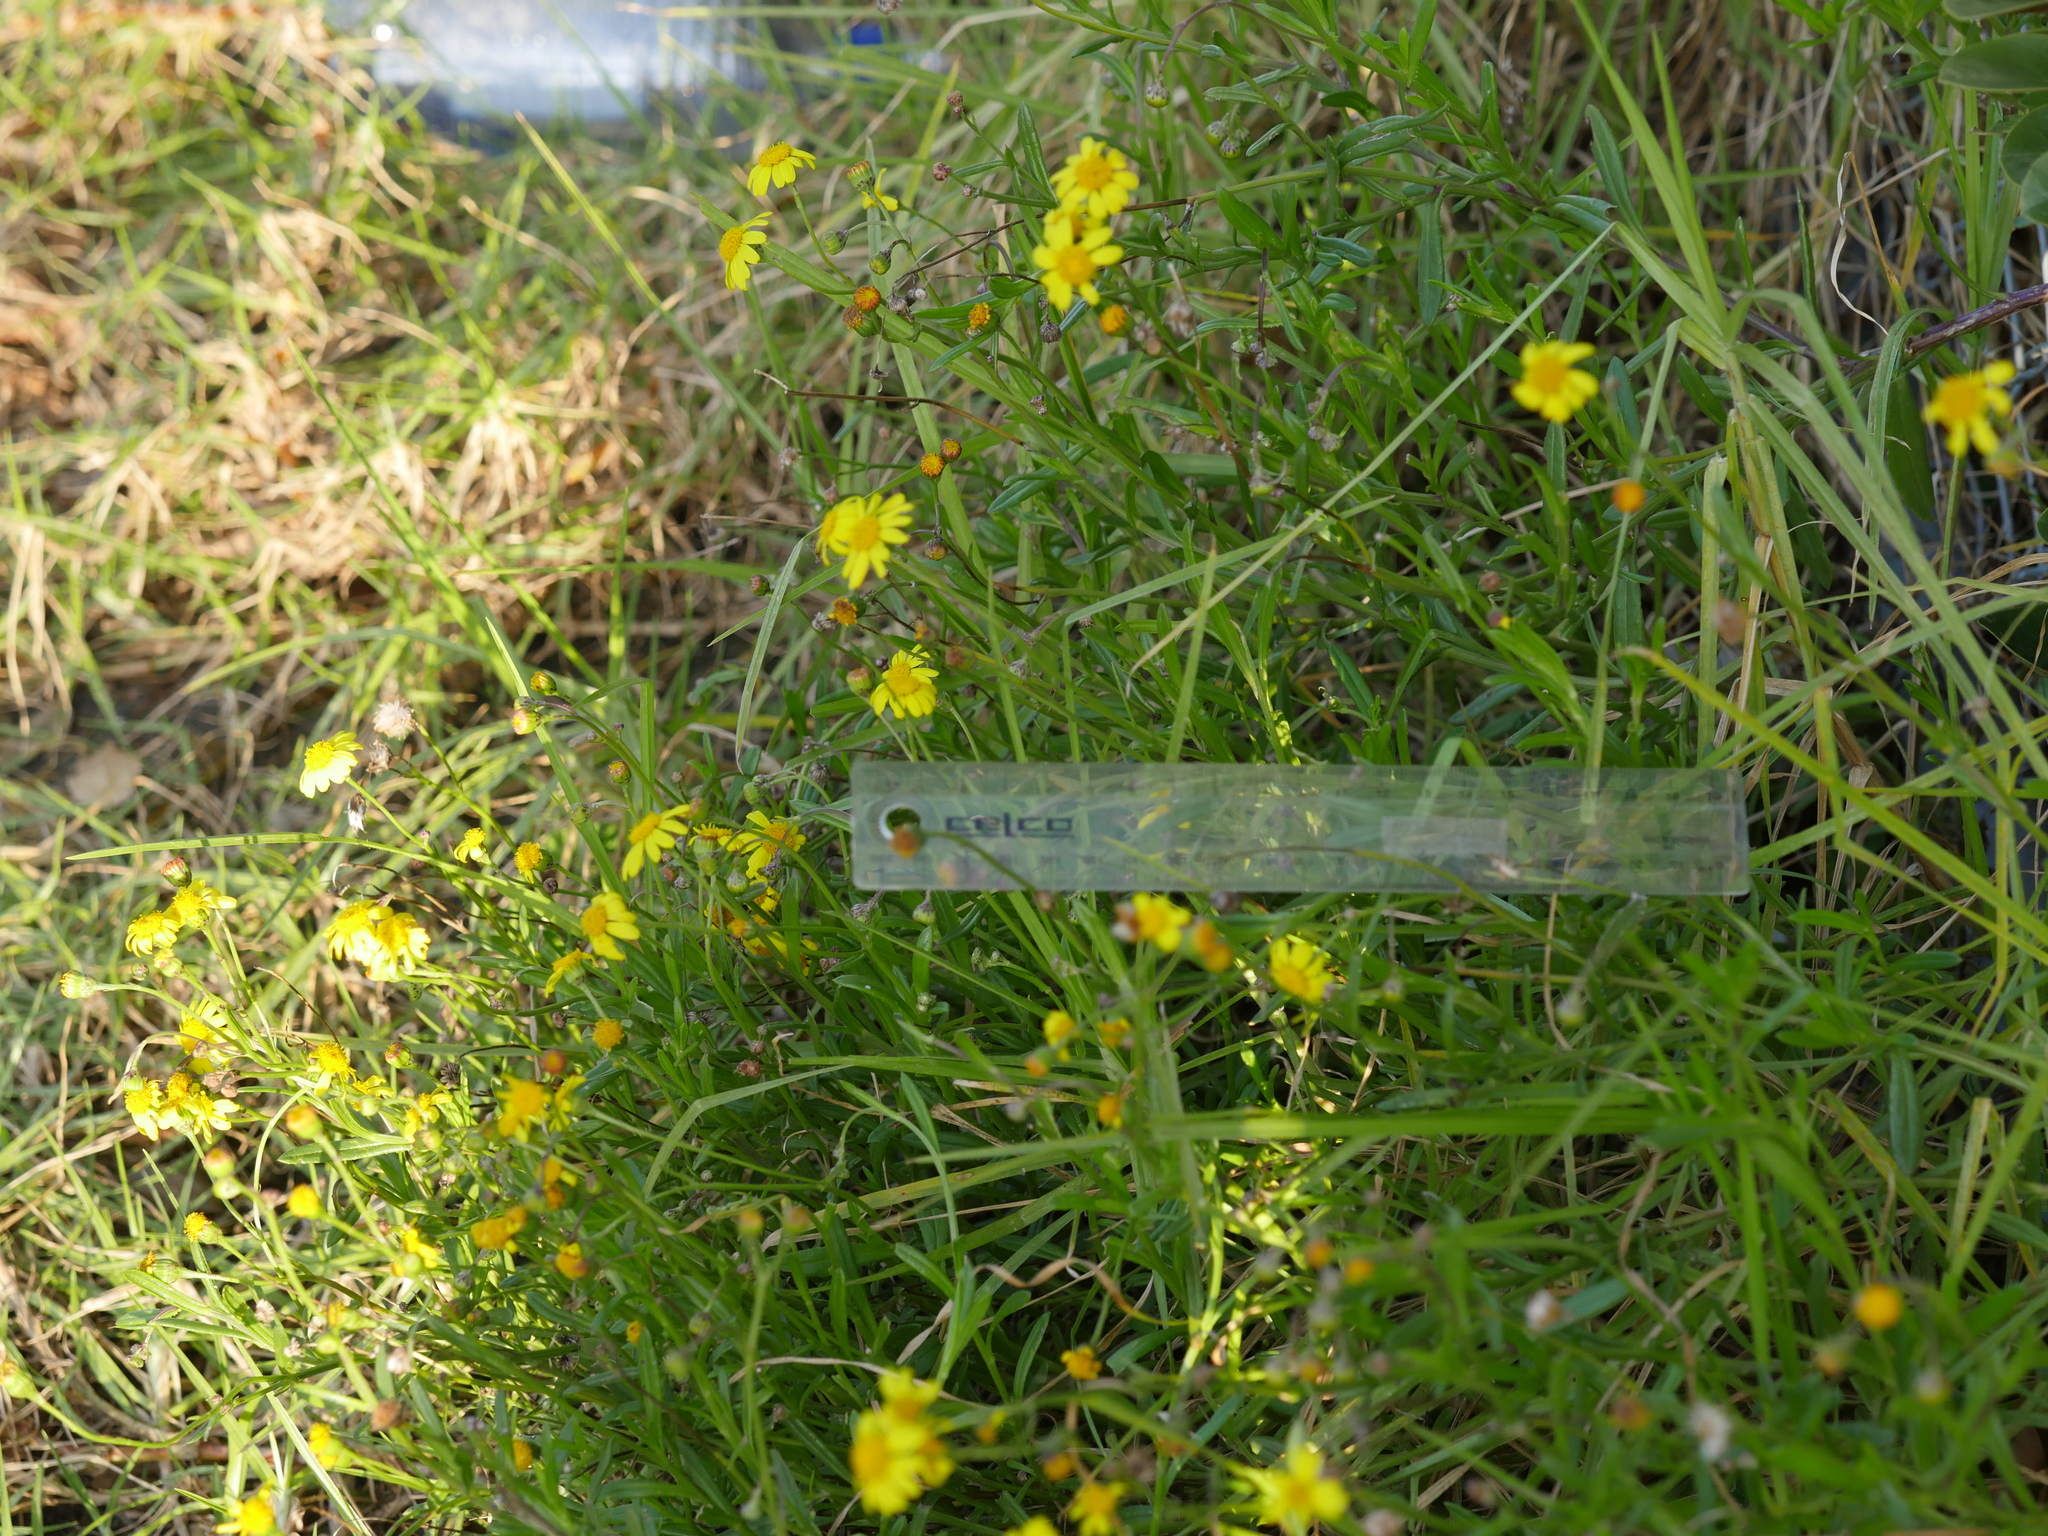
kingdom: Plantae
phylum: Tracheophyta
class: Magnoliopsida
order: Asterales
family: Asteraceae
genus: Senecio
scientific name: Senecio skirrhodon
